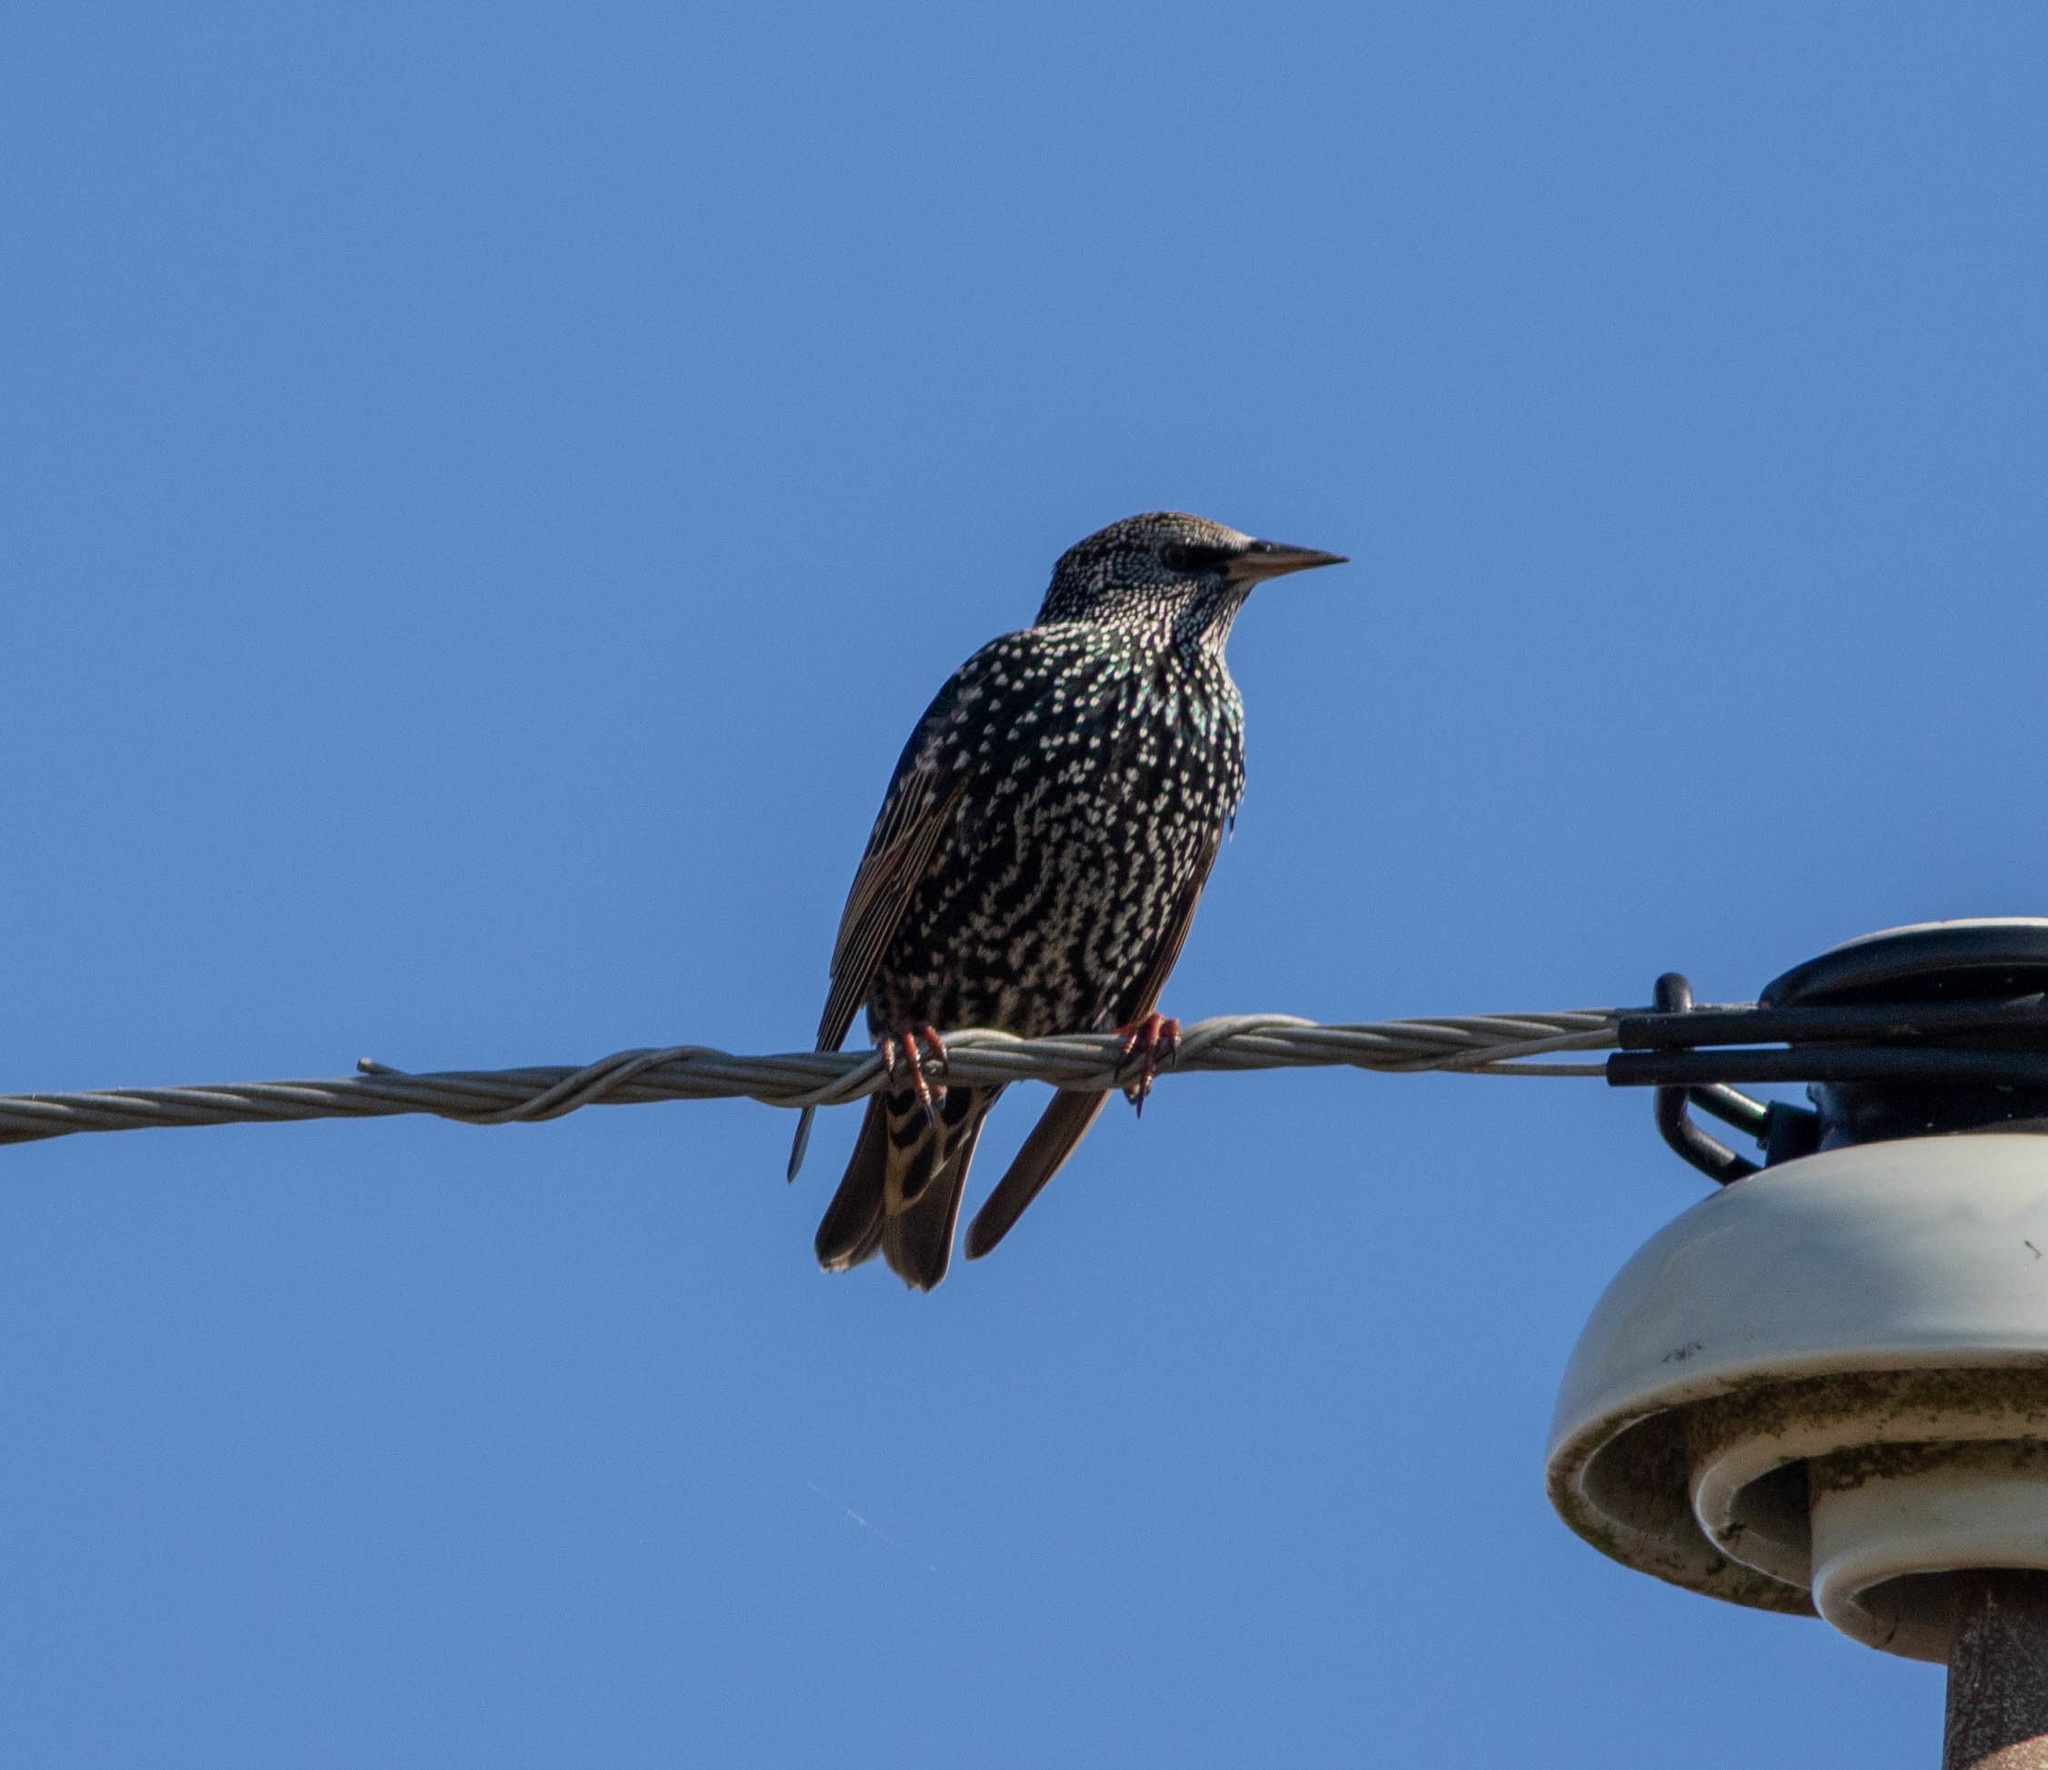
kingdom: Animalia
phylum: Chordata
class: Aves
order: Passeriformes
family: Sturnidae
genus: Sturnus
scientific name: Sturnus vulgaris
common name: Common starling
